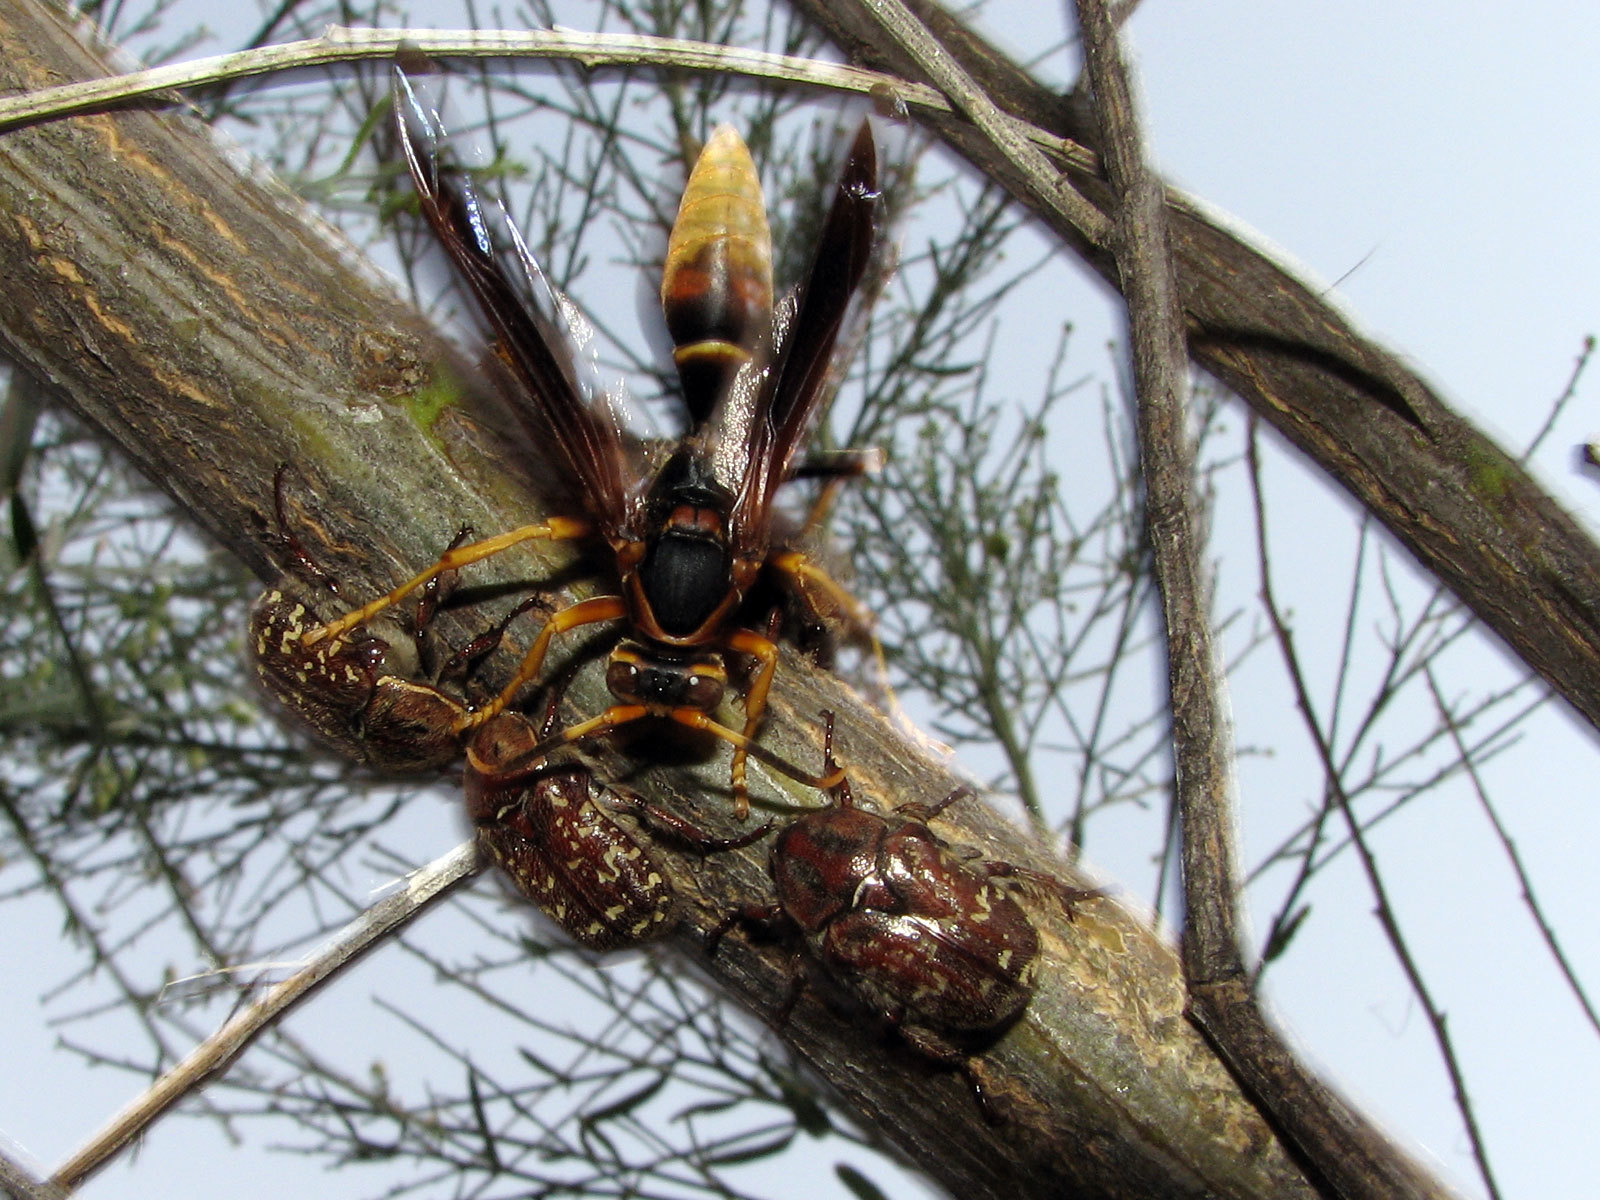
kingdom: Animalia
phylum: Arthropoda
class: Insecta
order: Hymenoptera
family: Eumenidae
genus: Polistes
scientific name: Polistes comanchus
